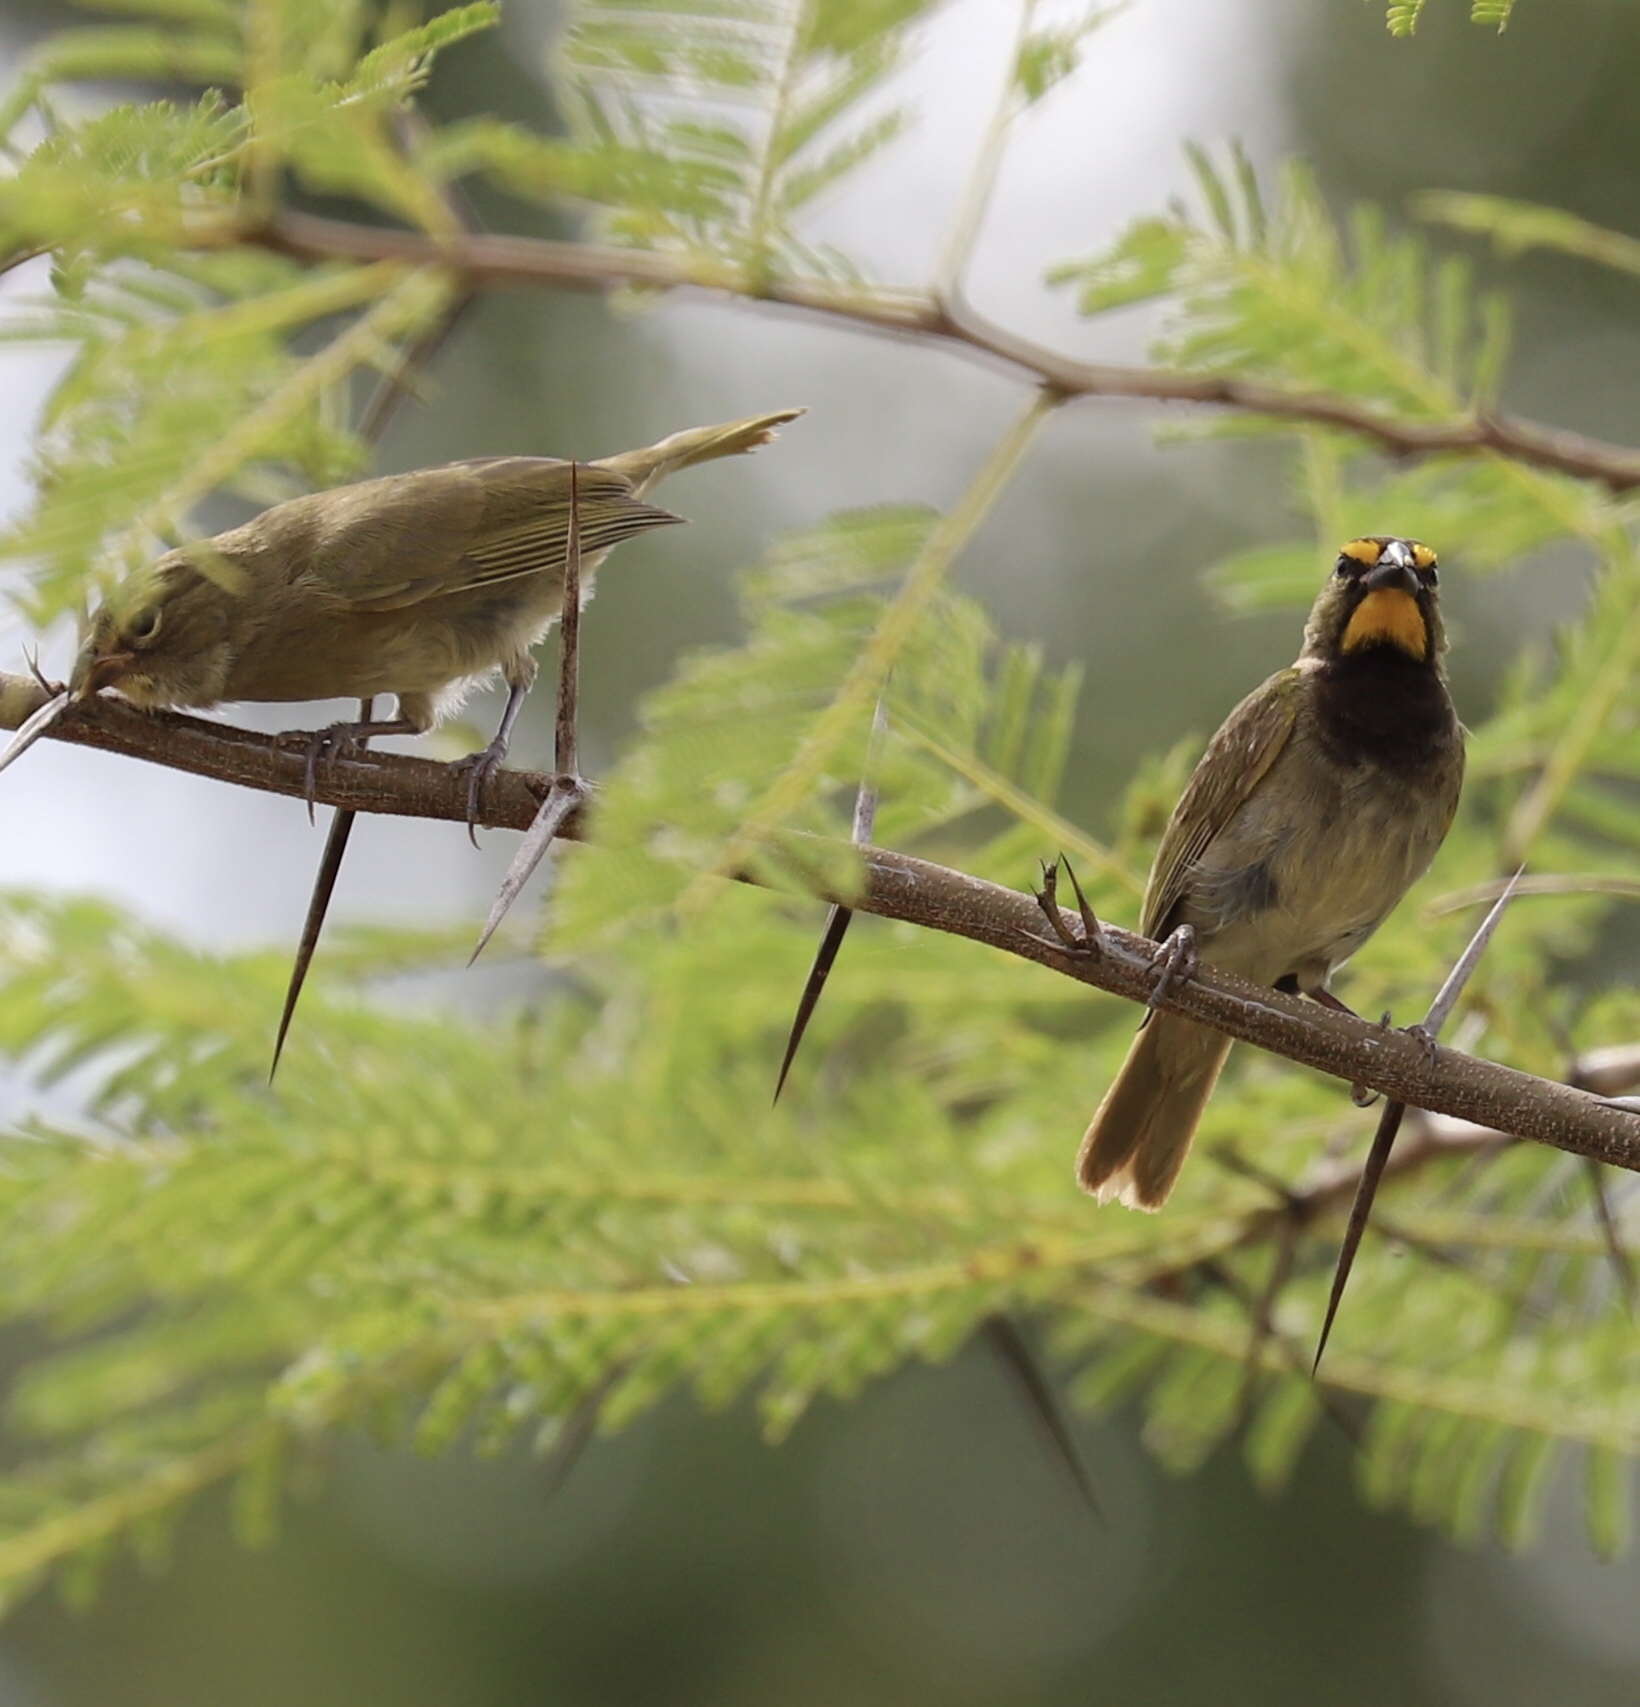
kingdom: Animalia
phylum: Chordata
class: Aves
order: Passeriformes
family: Thraupidae
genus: Tiaris
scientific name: Tiaris olivaceus
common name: Yellow-faced grassquit
